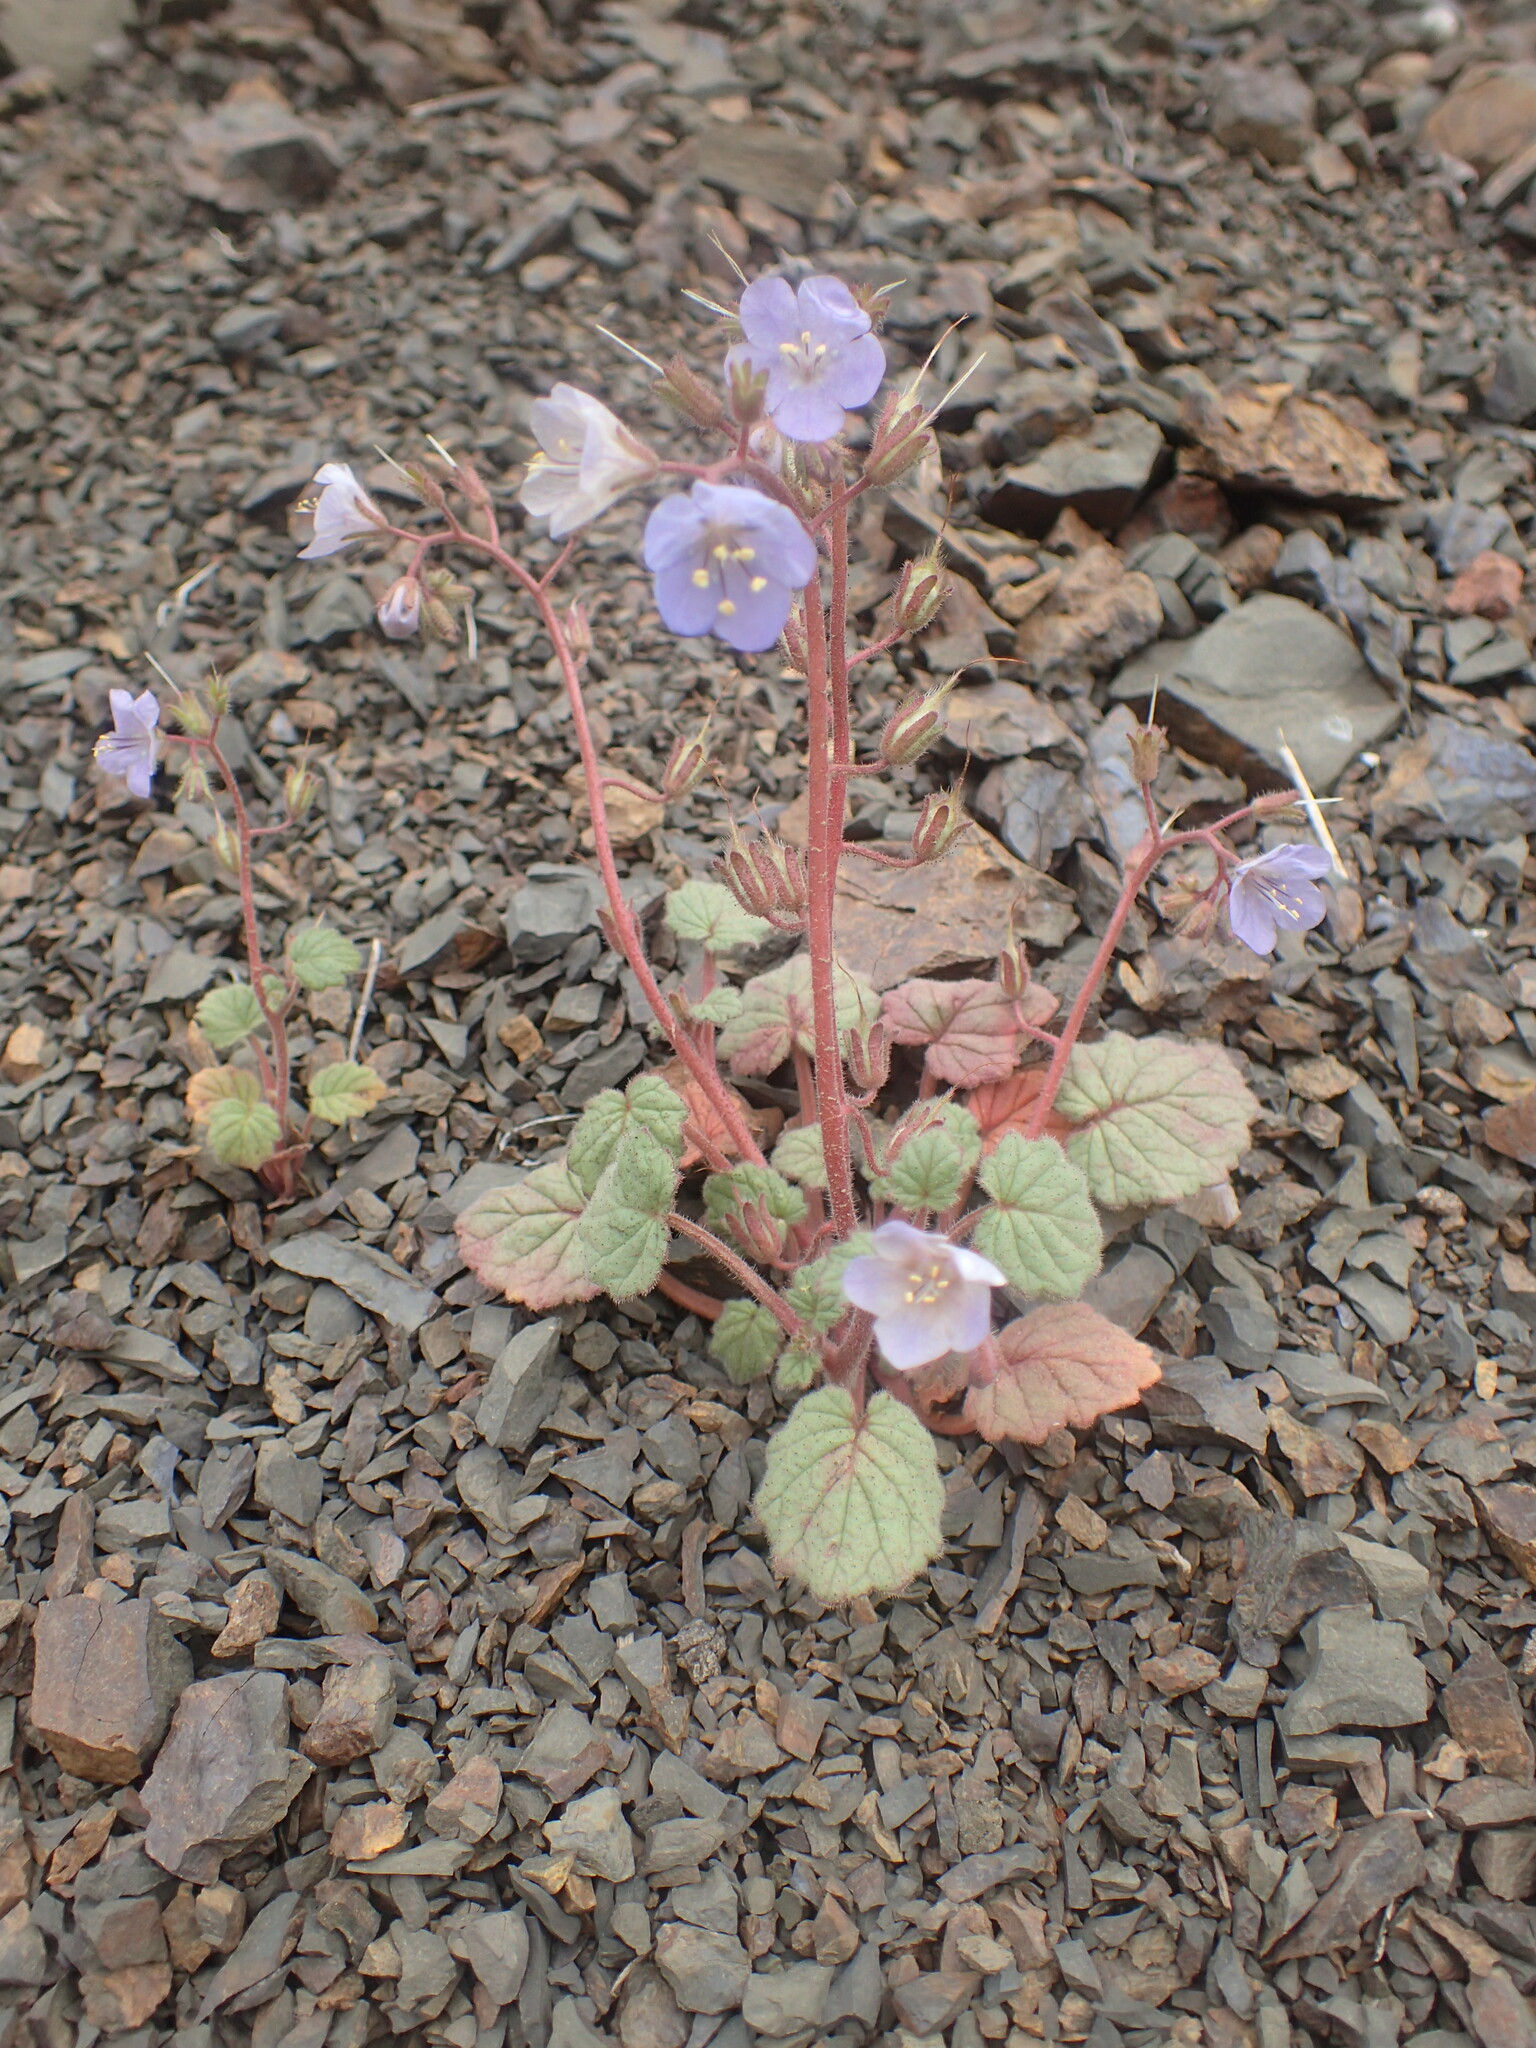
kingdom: Plantae
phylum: Tracheophyta
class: Magnoliopsida
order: Boraginales
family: Hydrophyllaceae
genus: Phacelia
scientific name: Phacelia longipes
